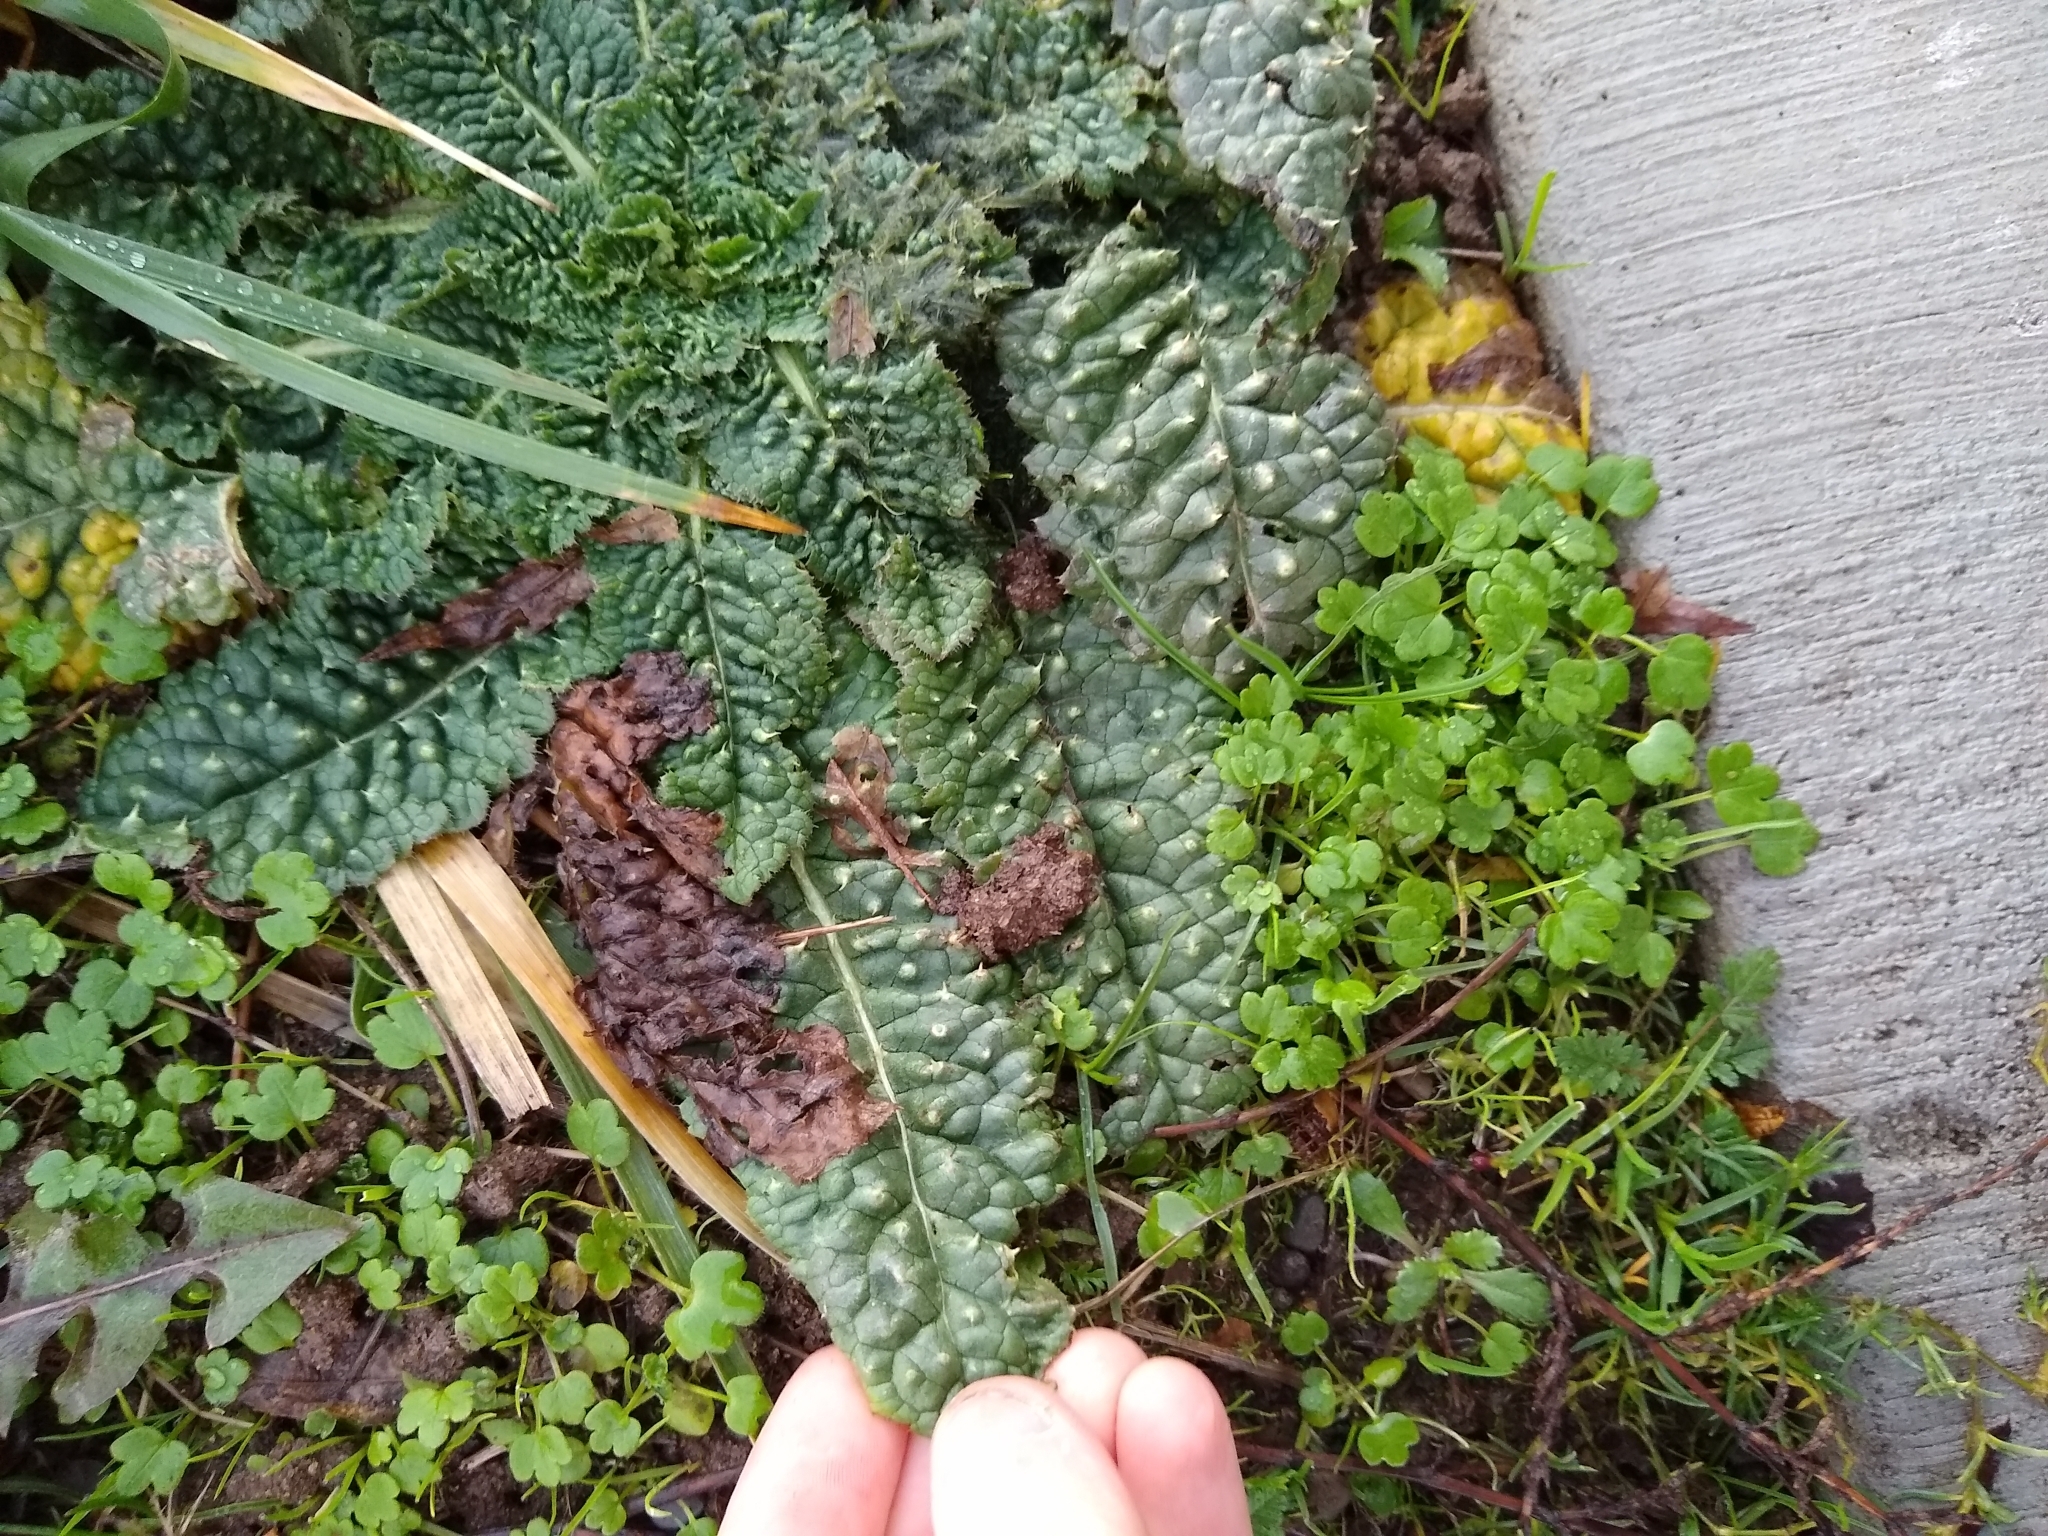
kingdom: Plantae
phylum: Tracheophyta
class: Magnoliopsida
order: Dipsacales
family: Caprifoliaceae
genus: Dipsacus
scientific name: Dipsacus fullonum
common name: Teasel
